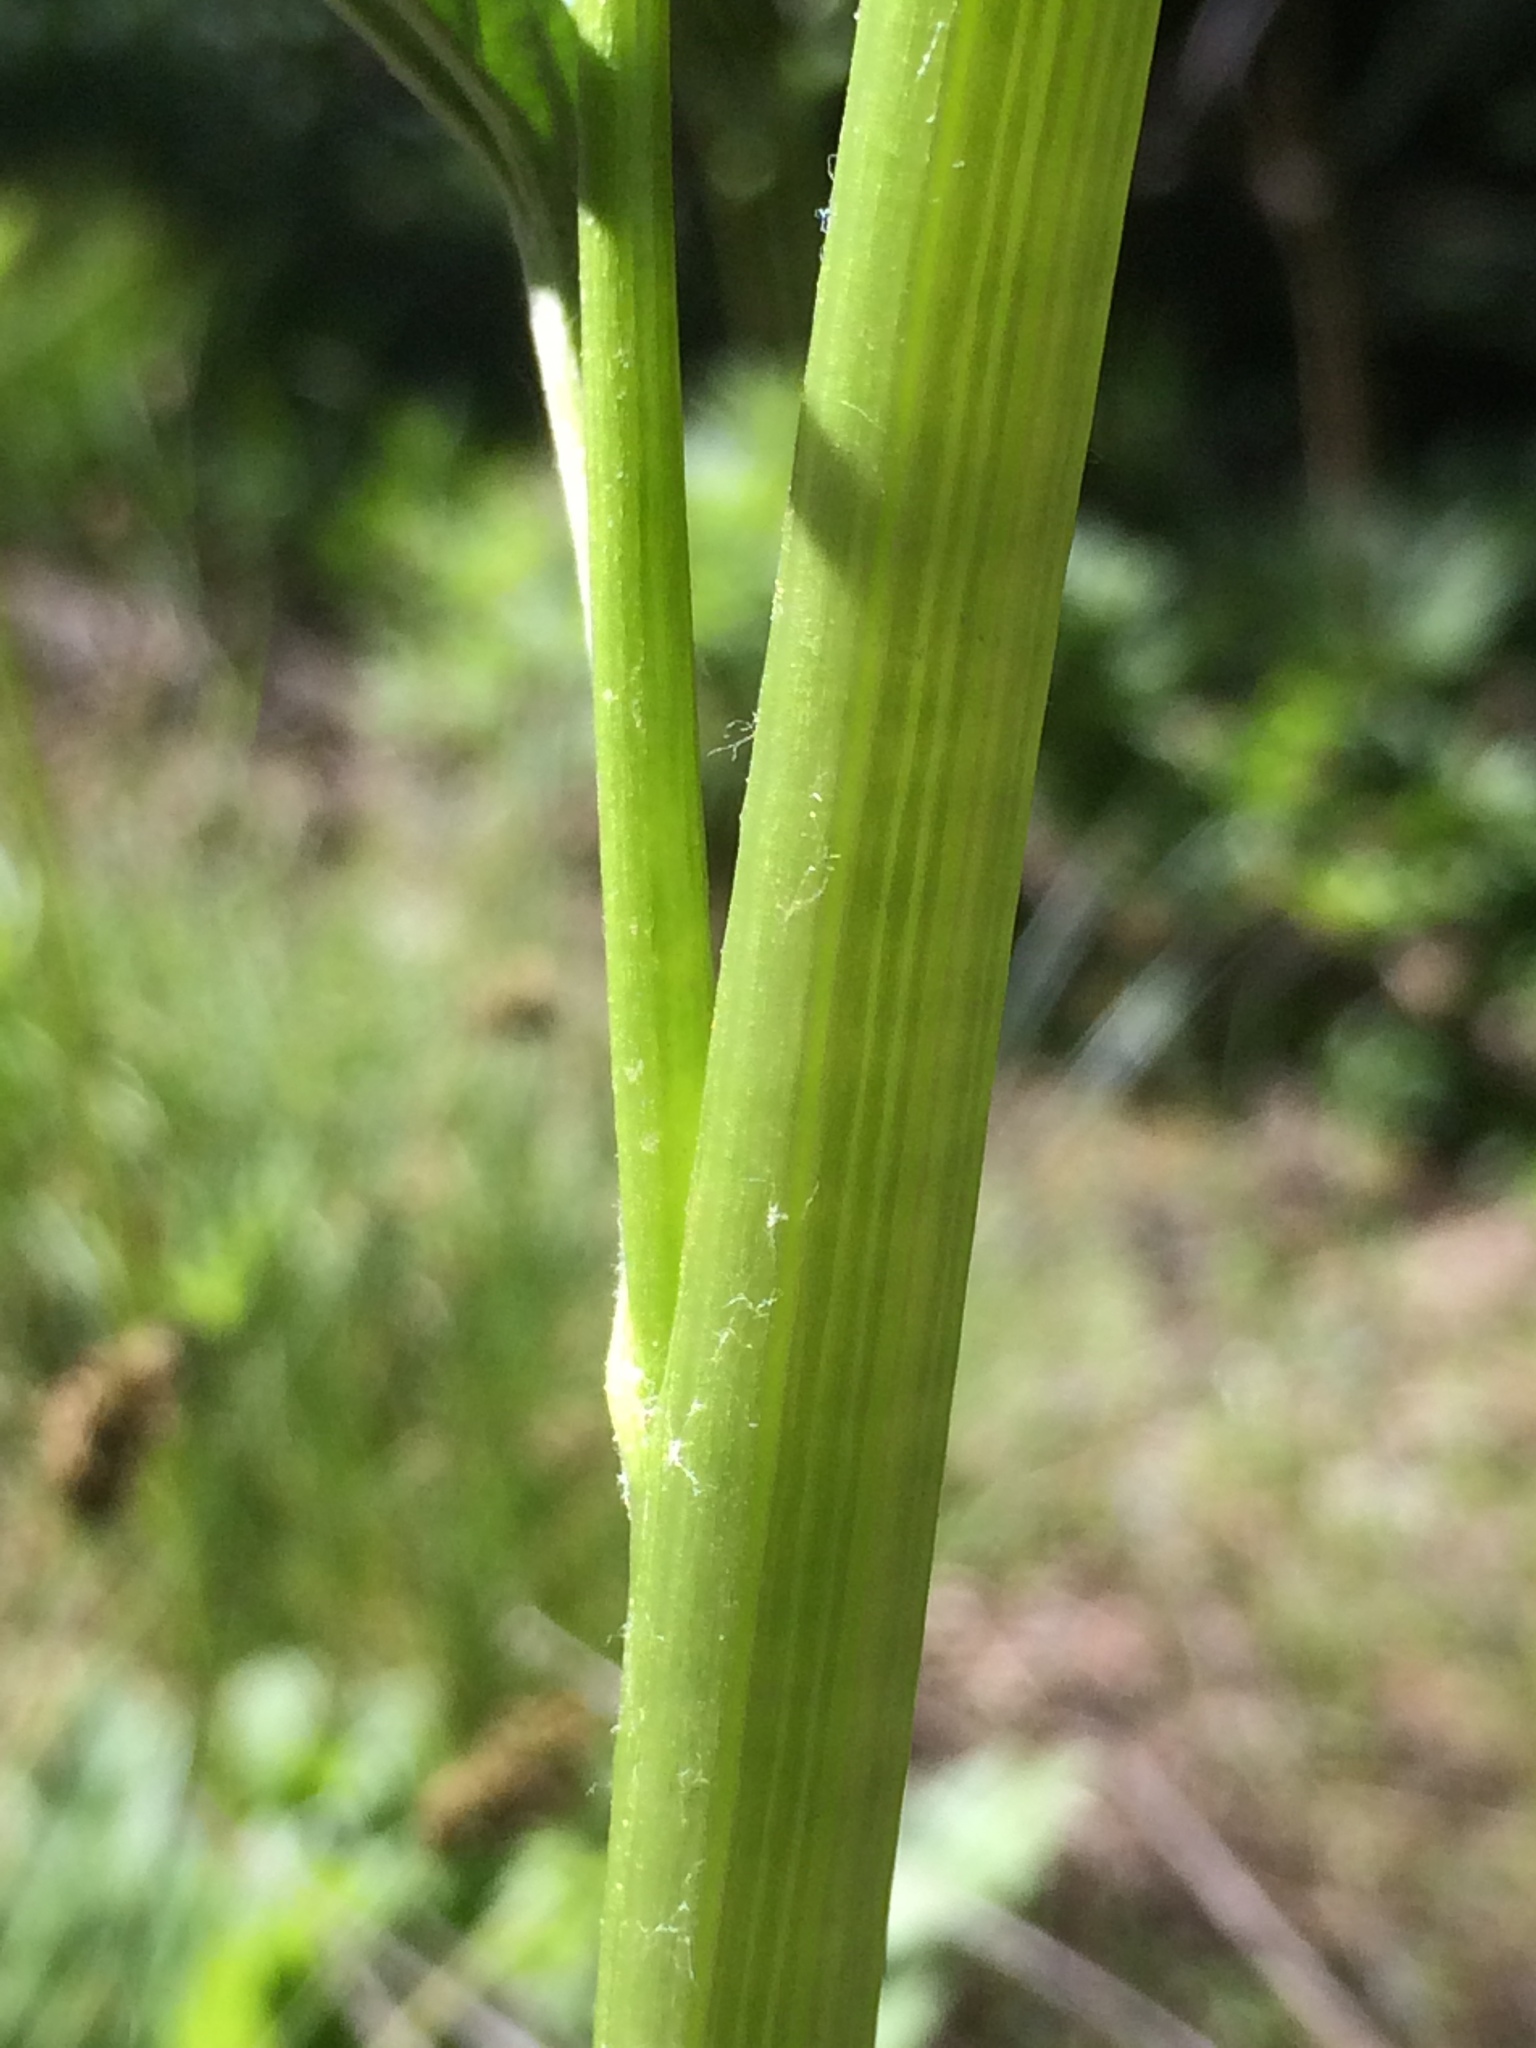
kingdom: Plantae
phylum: Tracheophyta
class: Magnoliopsida
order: Asterales
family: Asteraceae
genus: Cacaliopsis
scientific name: Cacaliopsis nardosmia
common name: Silvercrown
